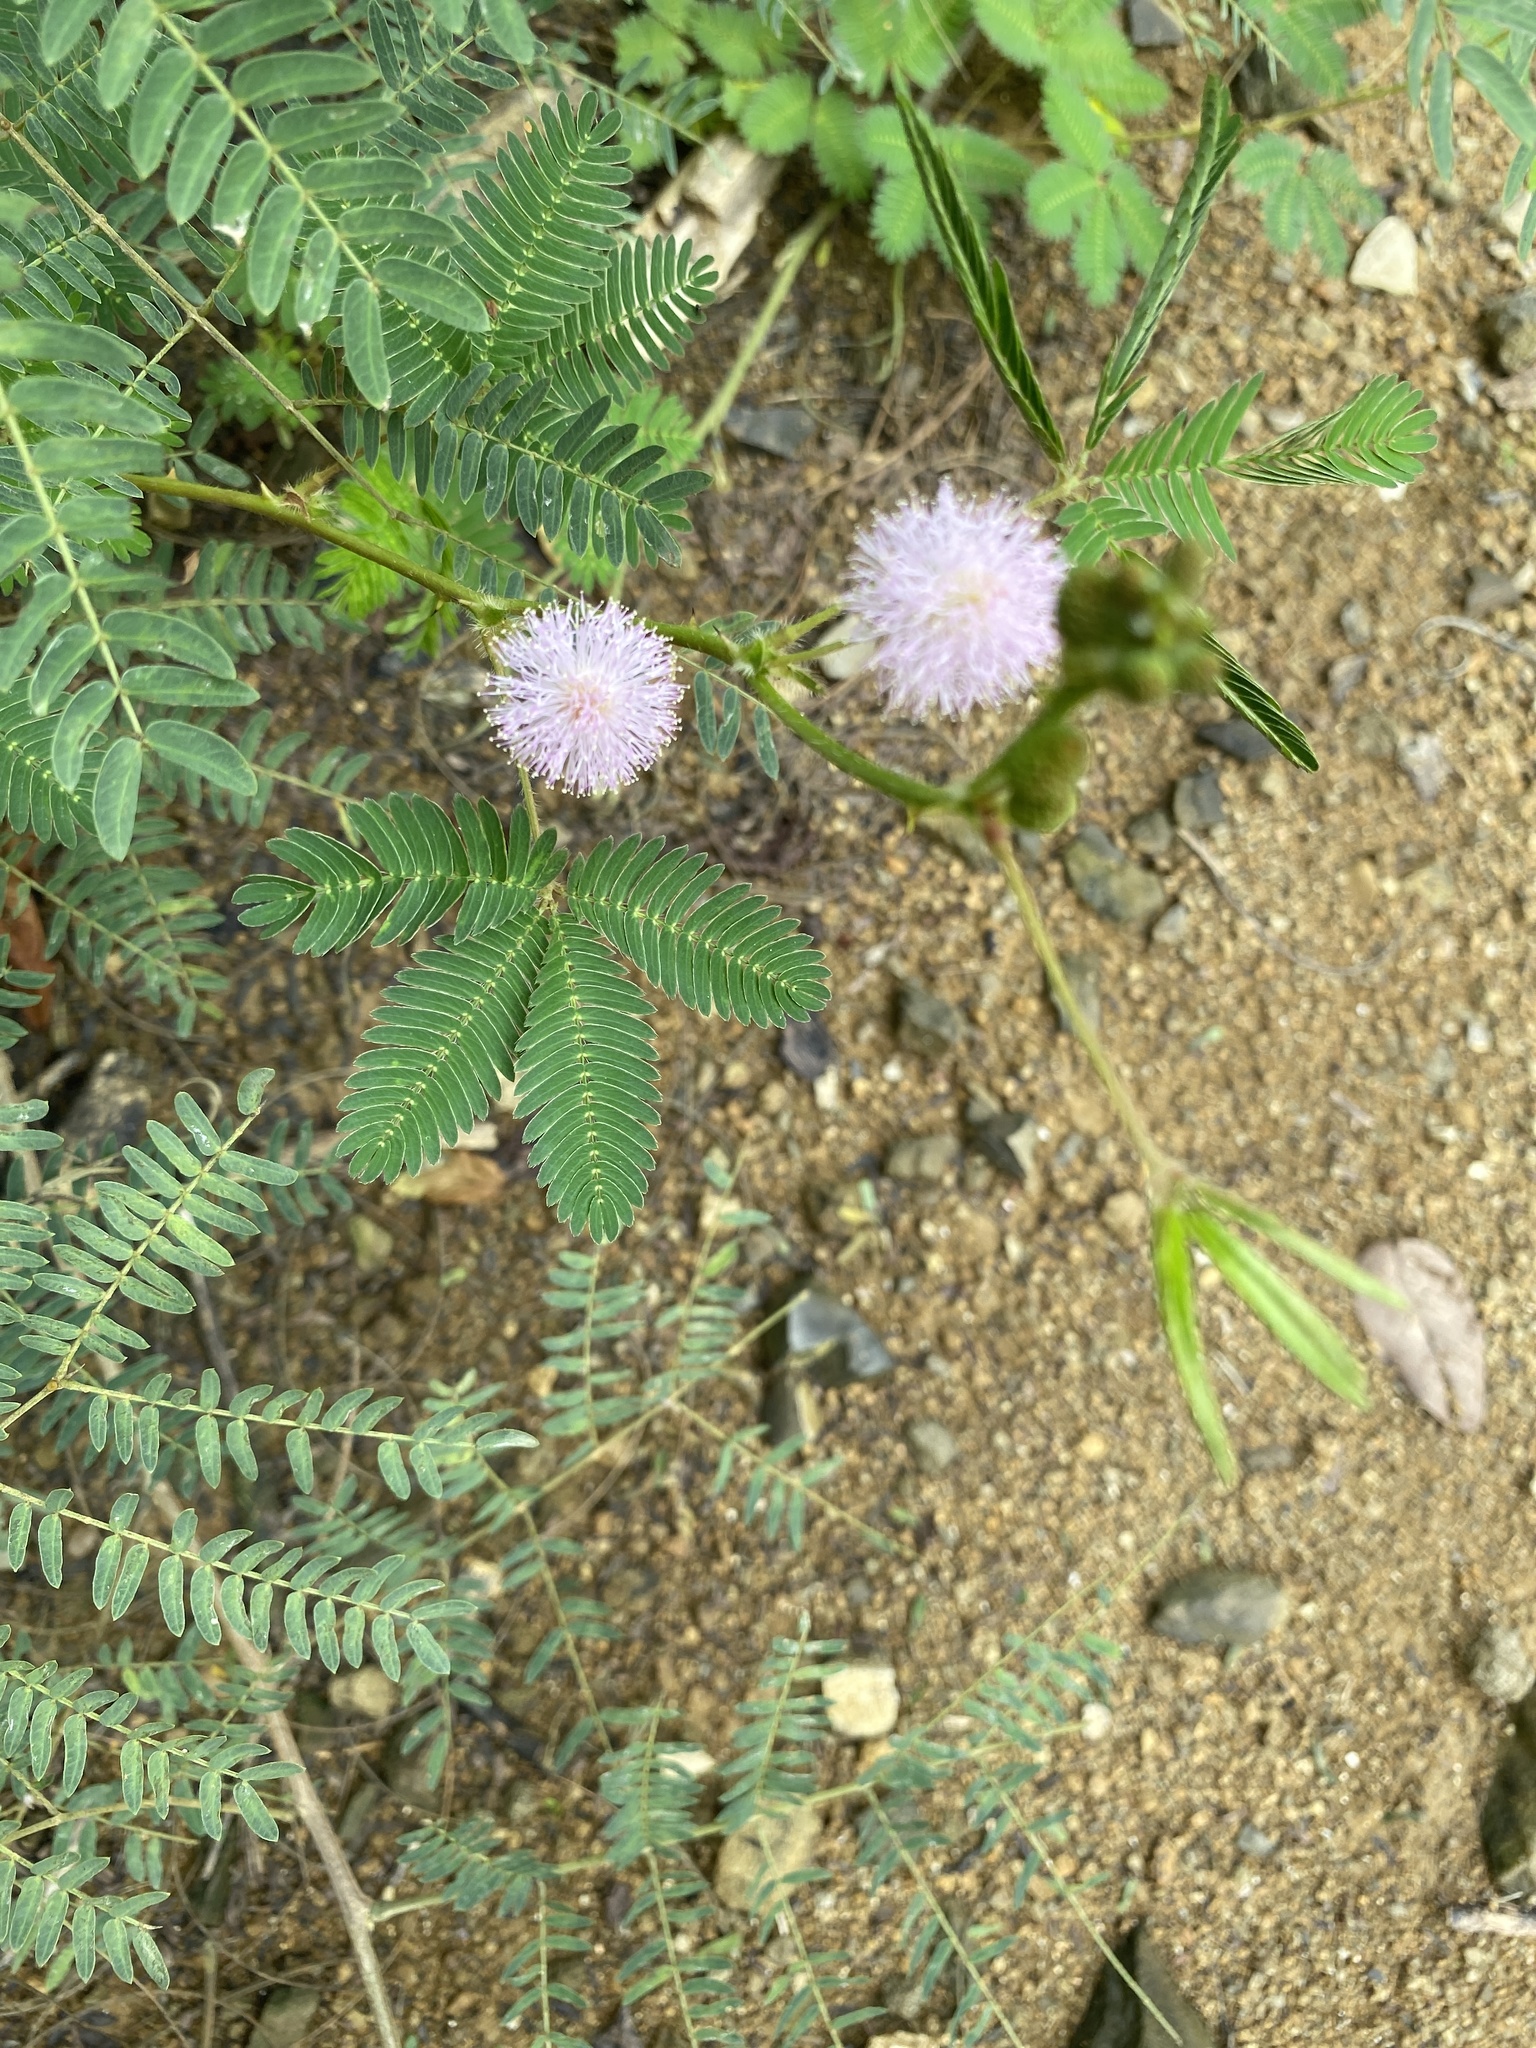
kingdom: Plantae
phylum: Tracheophyta
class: Magnoliopsida
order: Fabales
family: Fabaceae
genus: Mimosa
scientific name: Mimosa pudica
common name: Sensitive plant
